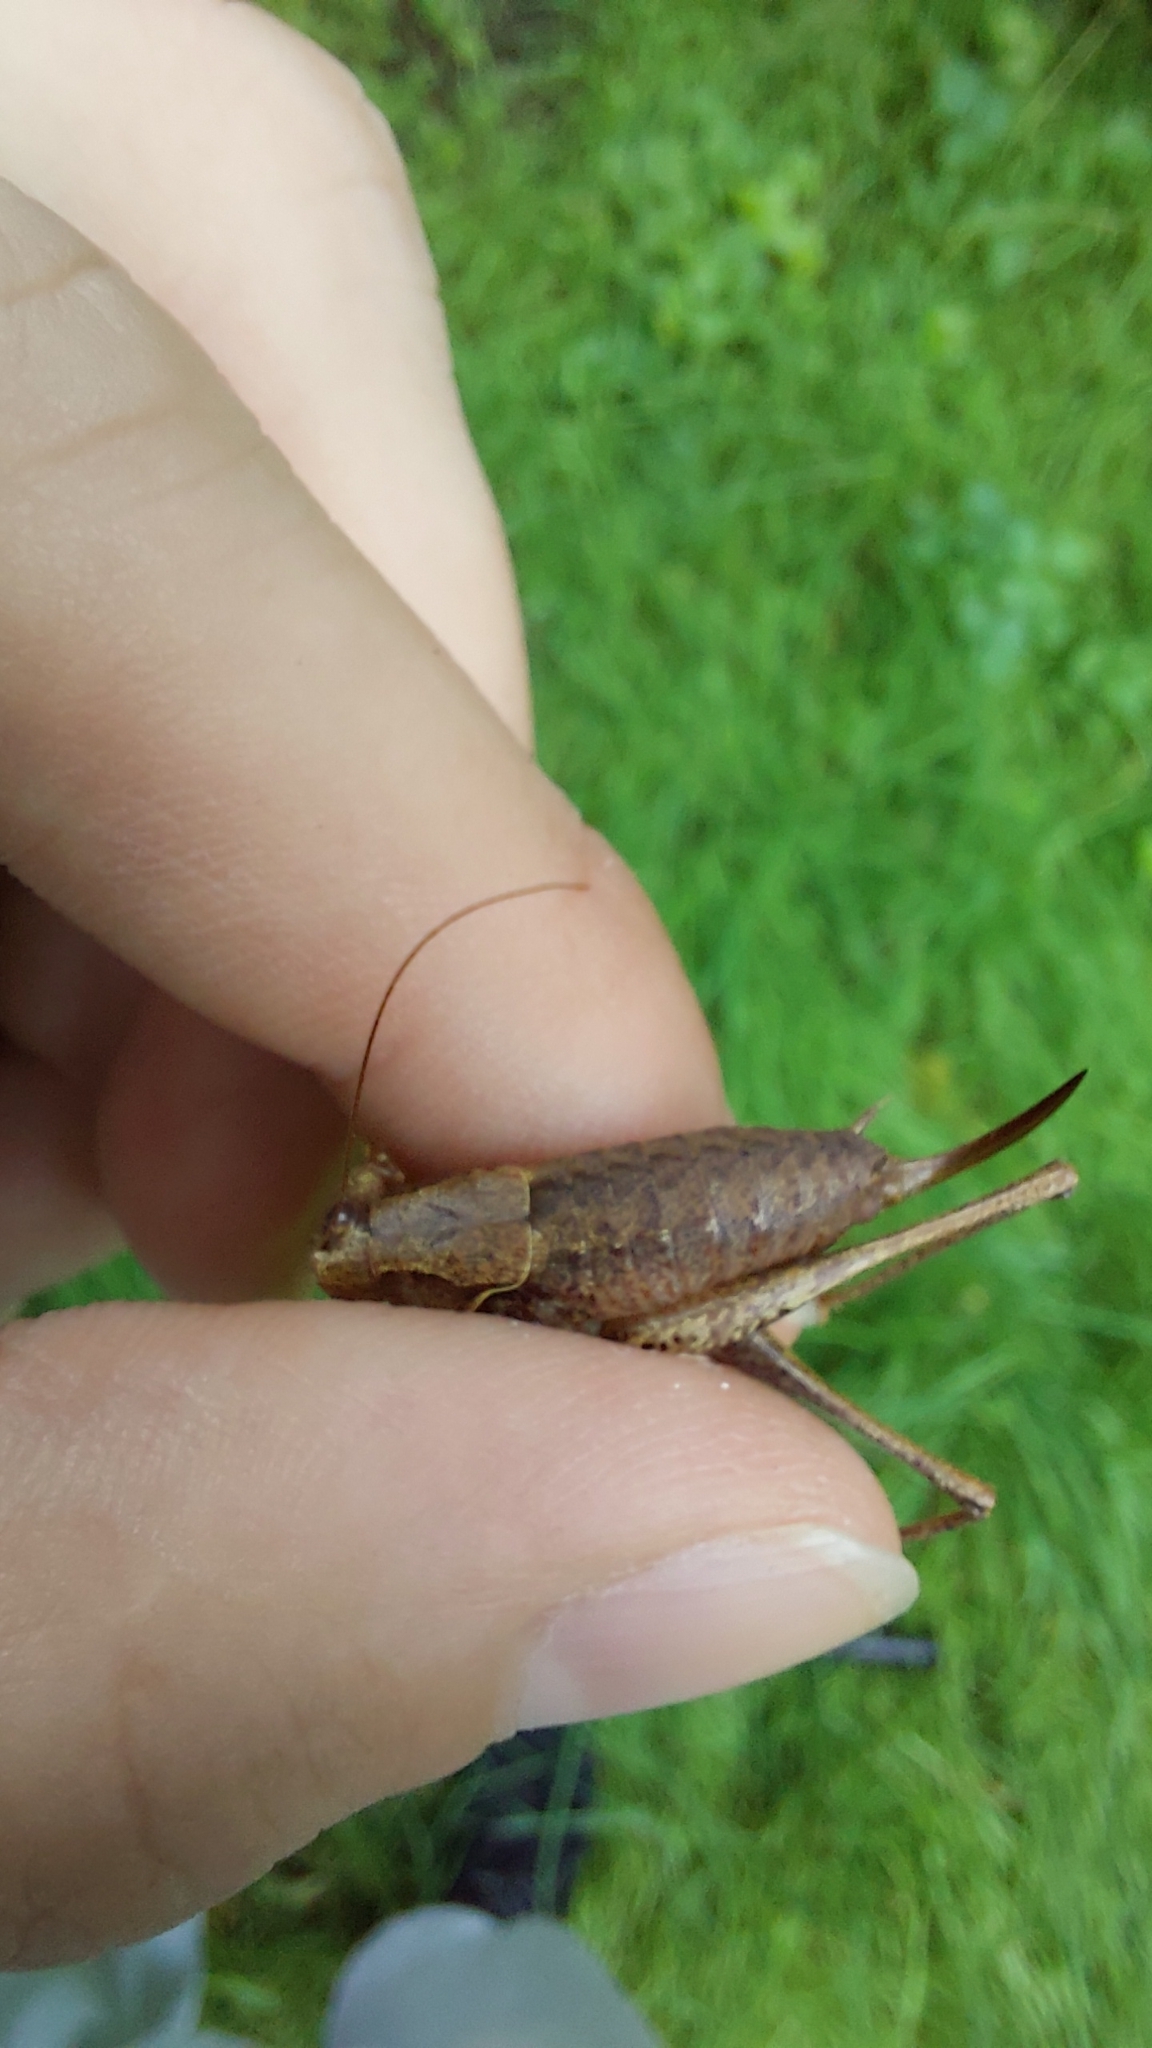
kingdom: Animalia
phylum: Arthropoda
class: Insecta
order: Orthoptera
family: Tettigoniidae
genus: Pholidoptera
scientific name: Pholidoptera griseoaptera
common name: Dark bush-cricket
